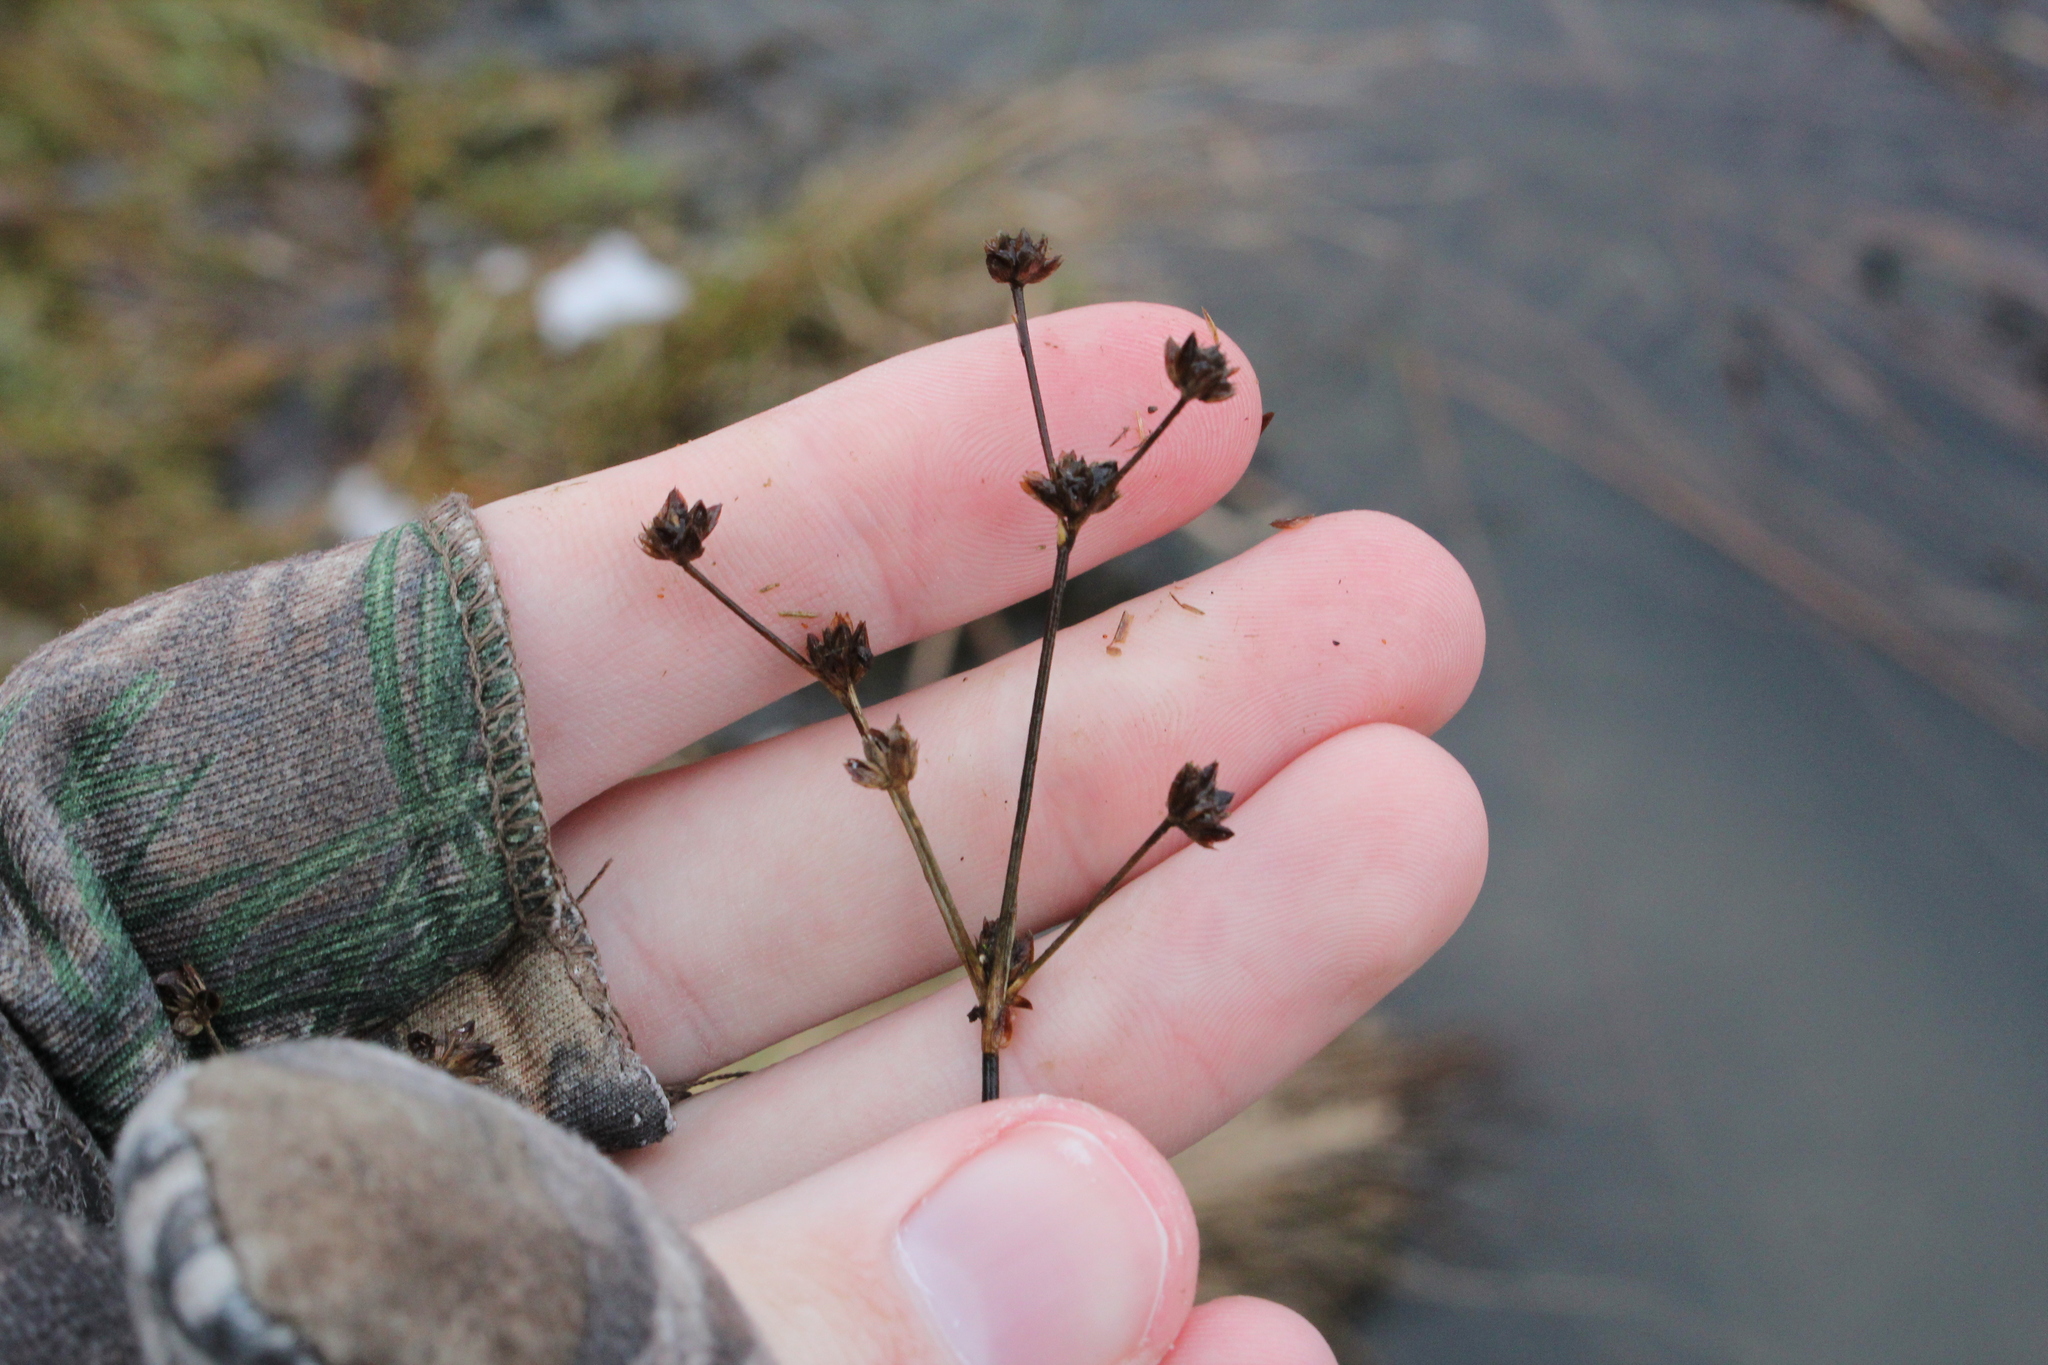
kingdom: Plantae
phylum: Tracheophyta
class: Liliopsida
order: Poales
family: Juncaceae
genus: Juncus
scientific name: Juncus articulatus
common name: Jointed rush
